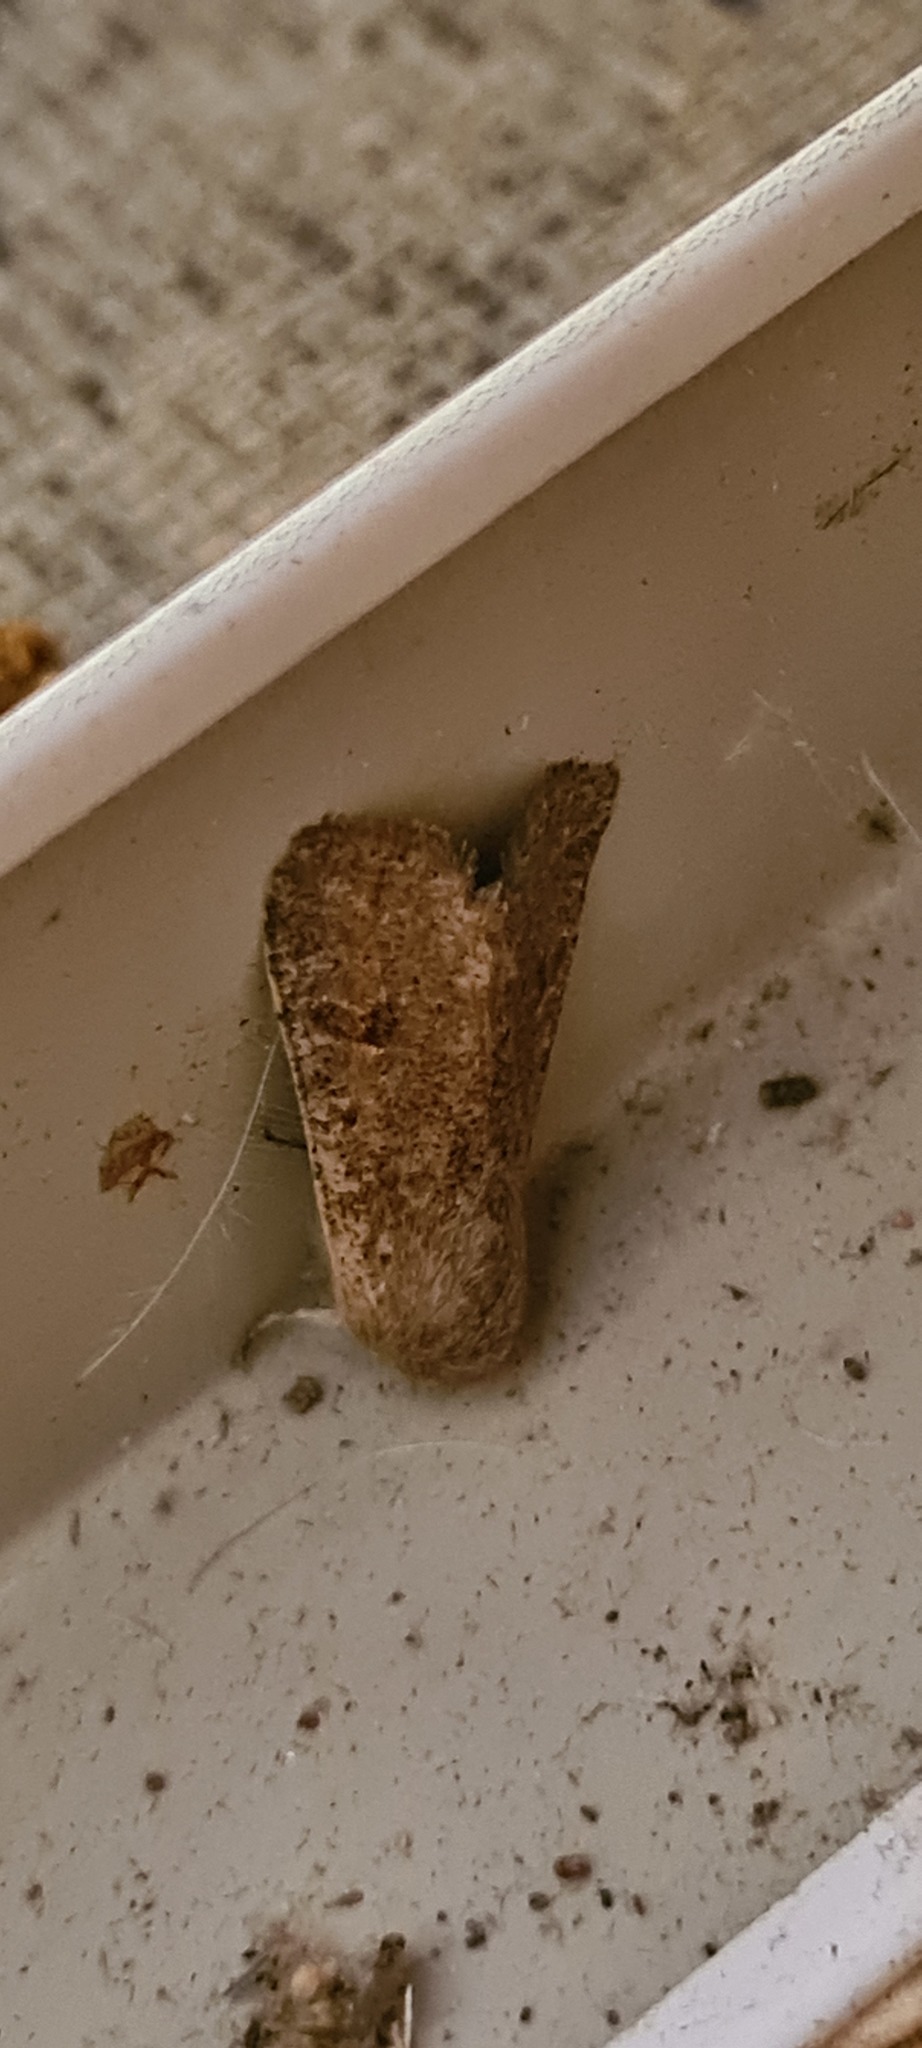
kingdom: Animalia
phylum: Arthropoda
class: Insecta
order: Lepidoptera
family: Noctuidae
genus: Orthosia
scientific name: Orthosia cruda
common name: Small quaker
